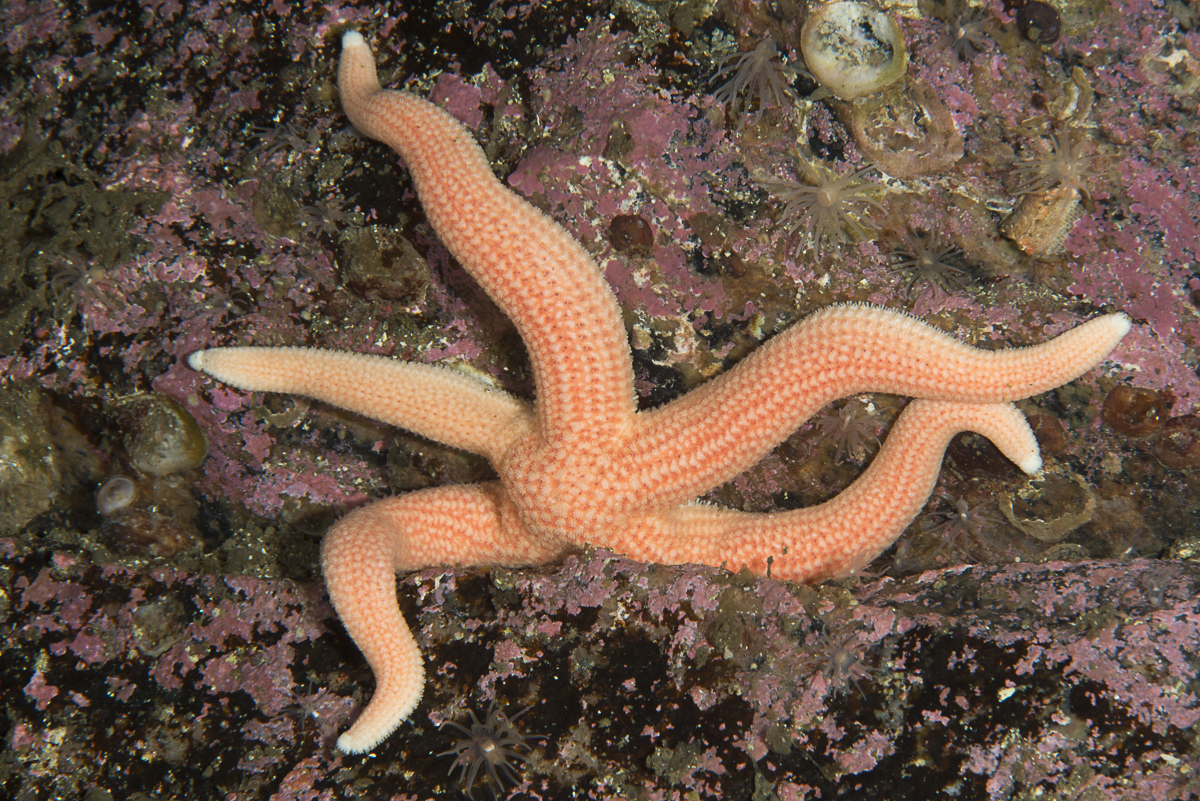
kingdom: Animalia
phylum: Echinodermata
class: Asteroidea
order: Forcipulatida
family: Stichasteridae
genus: Stichastrella
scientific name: Stichastrella rosea
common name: Rosy starfish
